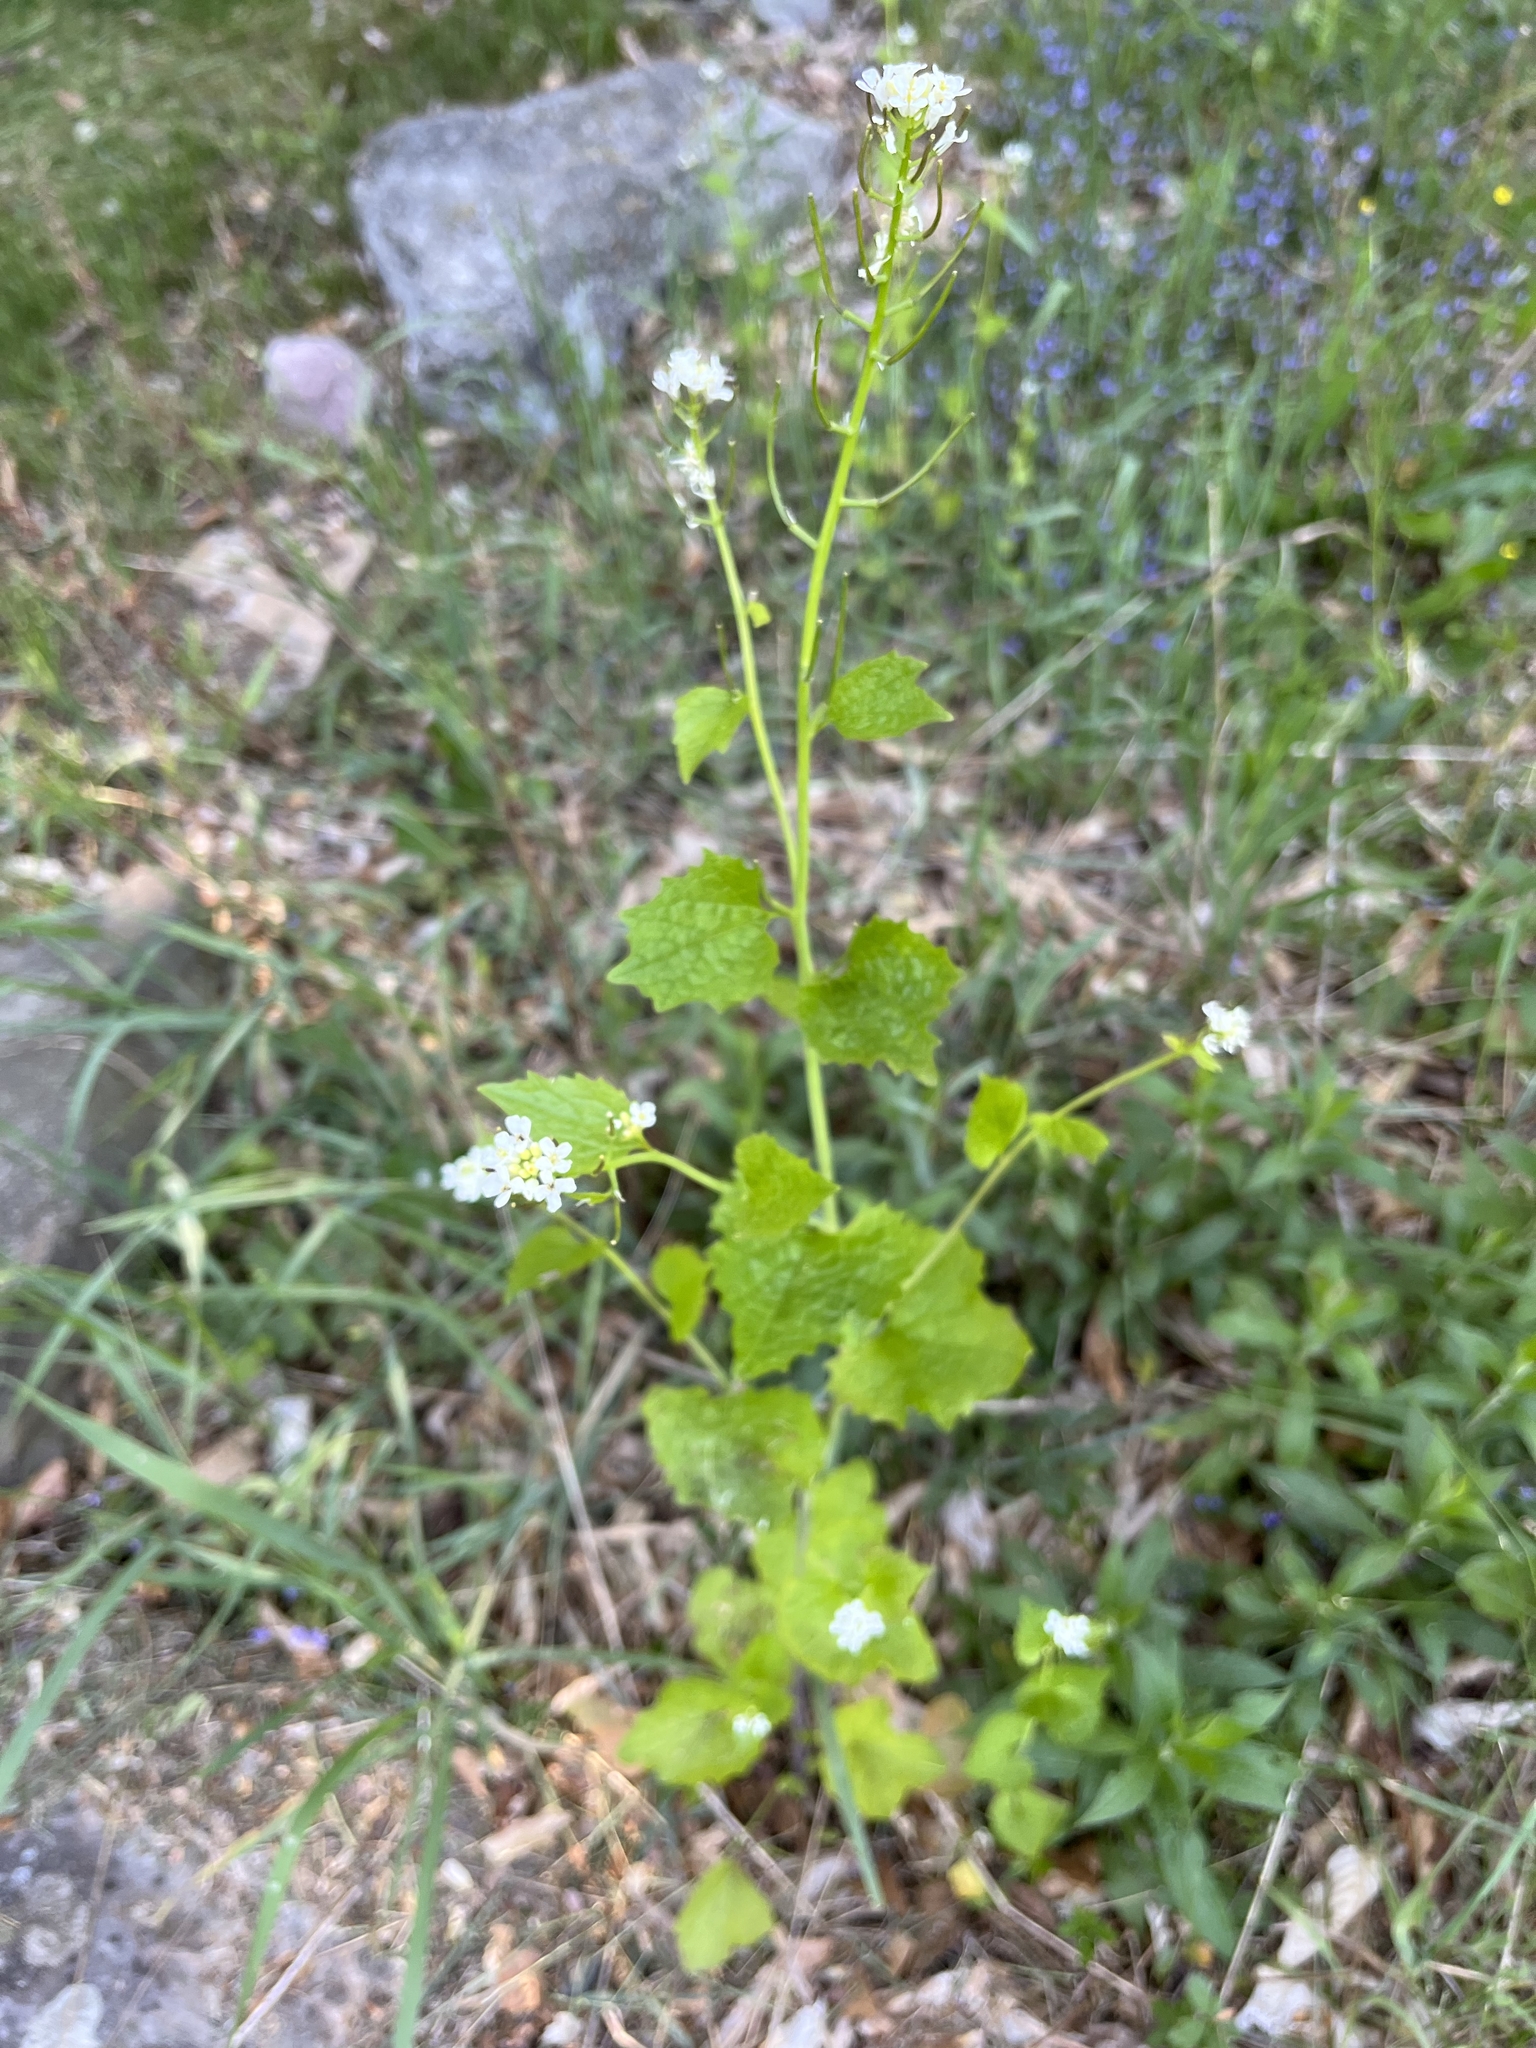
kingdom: Plantae
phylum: Tracheophyta
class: Magnoliopsida
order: Brassicales
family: Brassicaceae
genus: Alliaria
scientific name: Alliaria petiolata
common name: Garlic mustard
